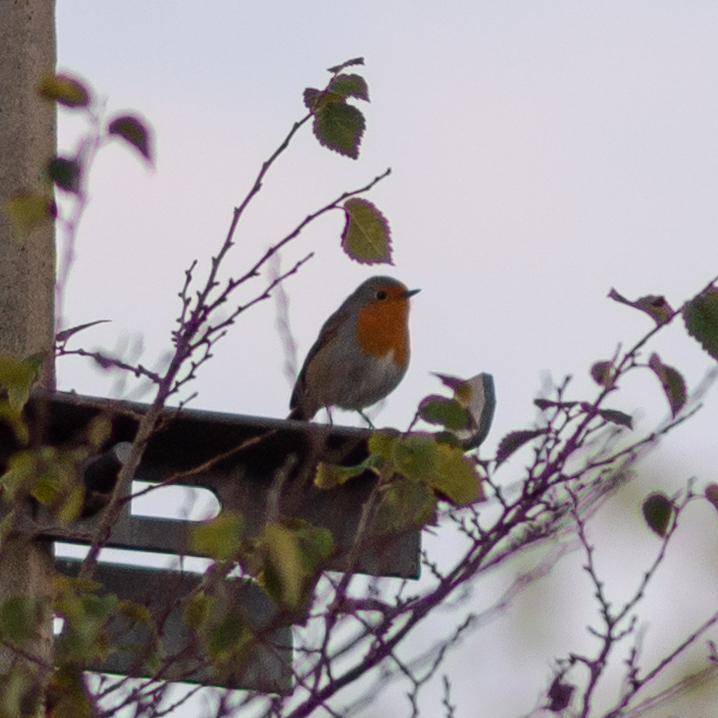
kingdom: Animalia
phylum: Chordata
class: Aves
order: Passeriformes
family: Muscicapidae
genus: Erithacus
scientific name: Erithacus rubecula
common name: European robin
